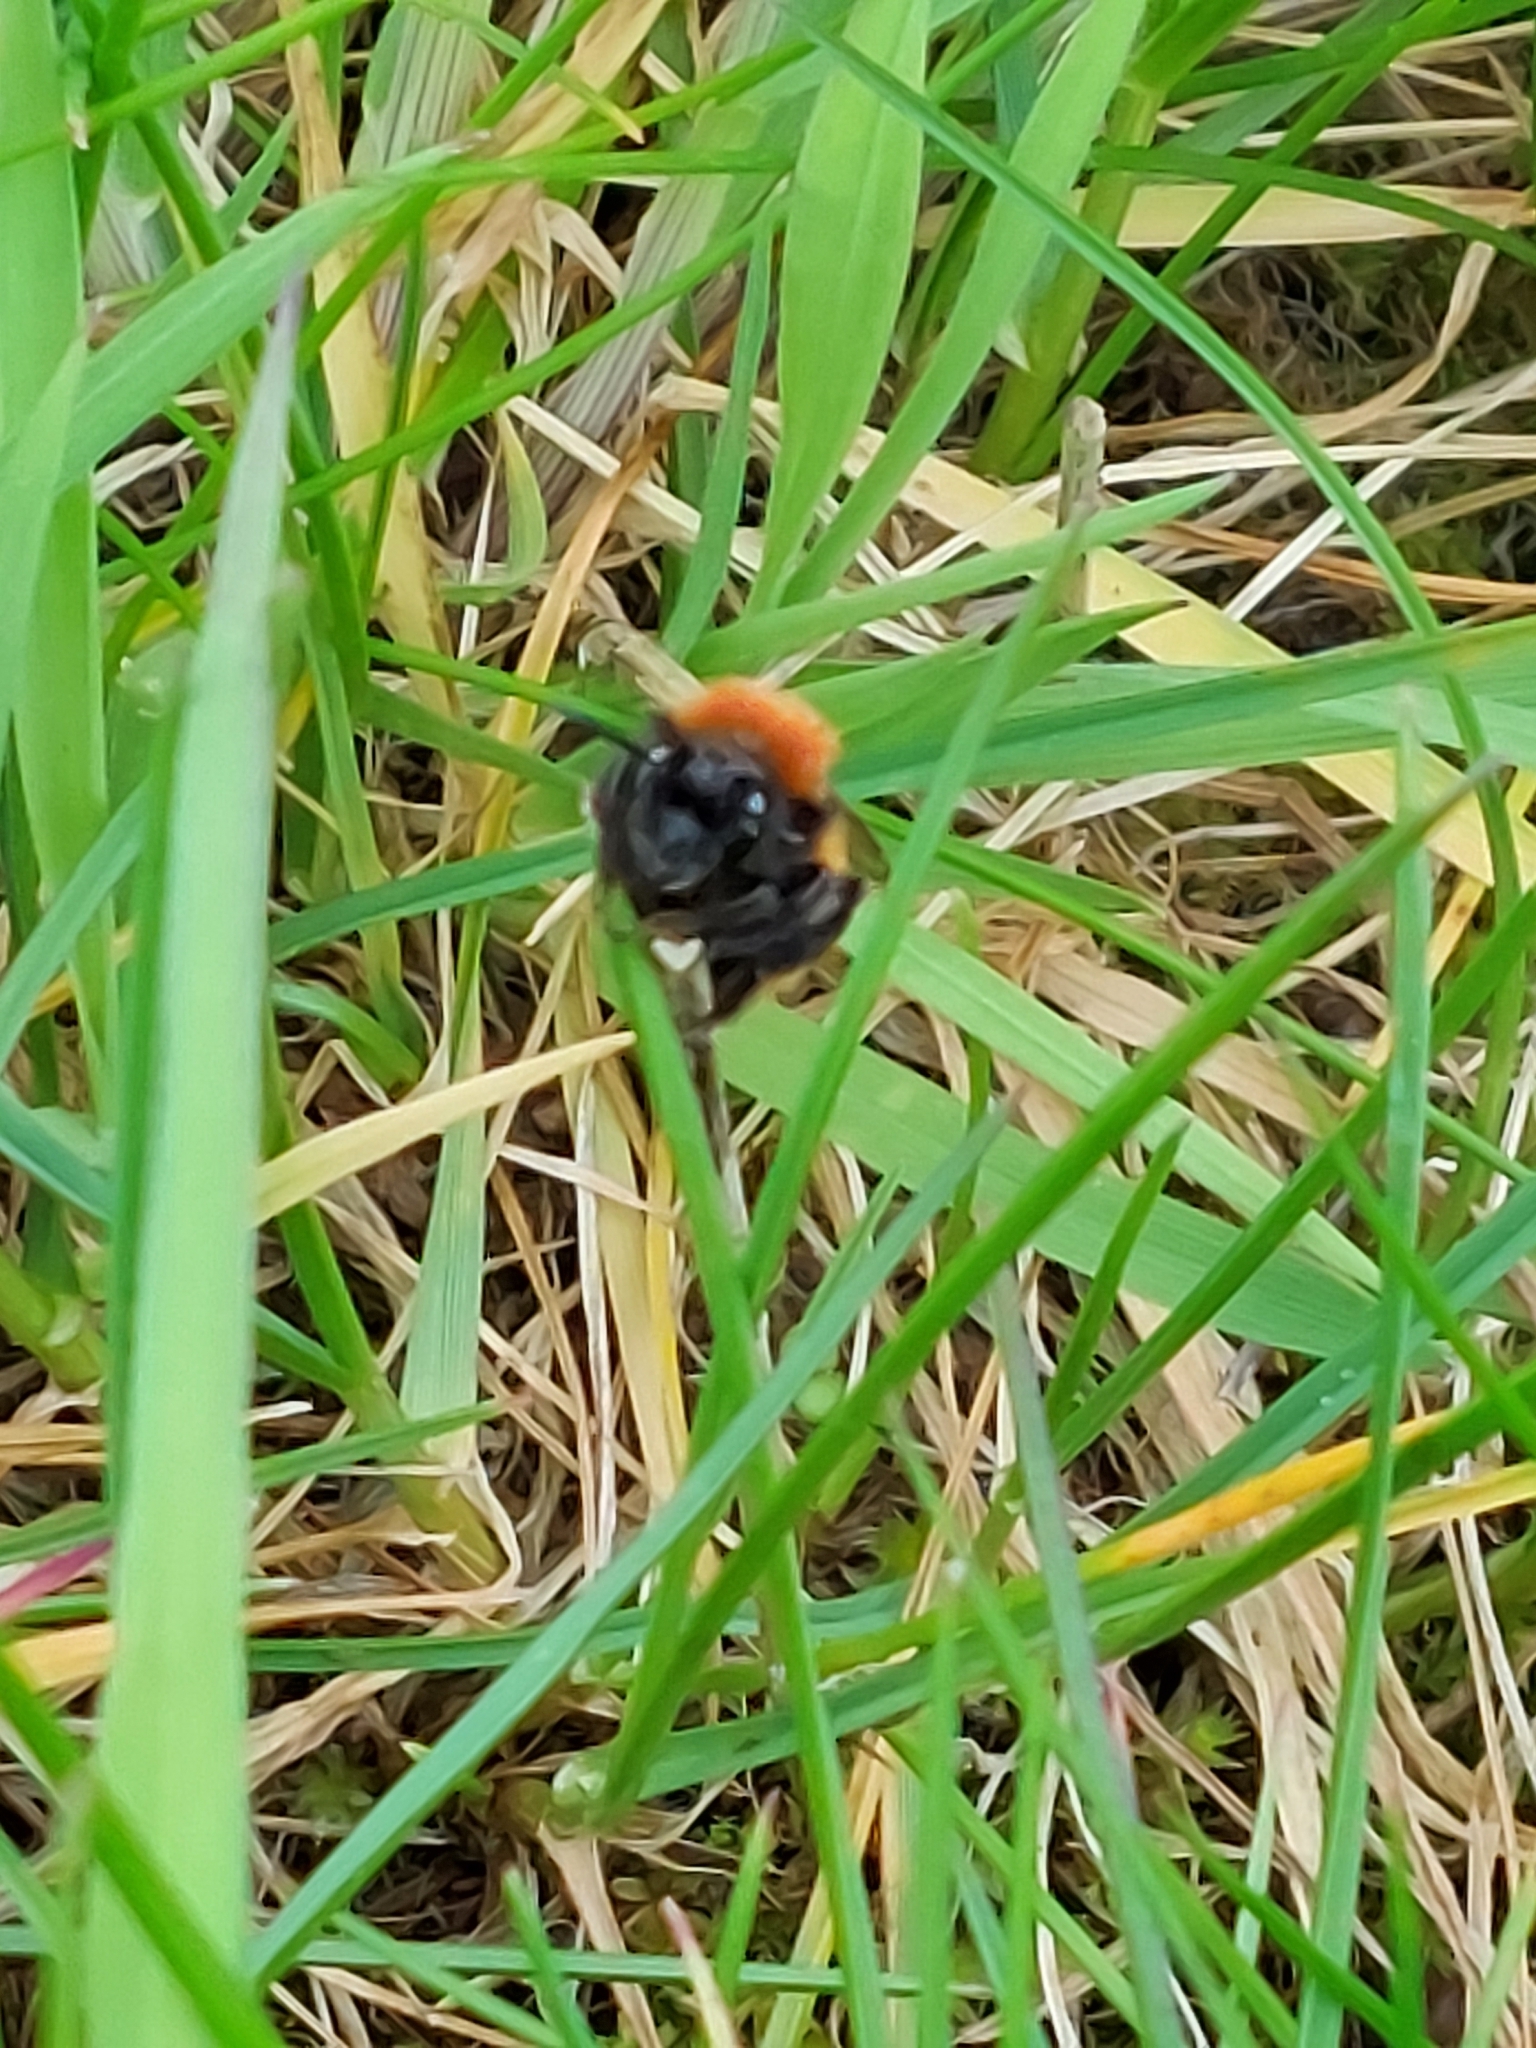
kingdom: Animalia
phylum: Arthropoda
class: Insecta
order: Hymenoptera
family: Andrenidae
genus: Andrena
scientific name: Andrena fulva
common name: Tawny mining bee
